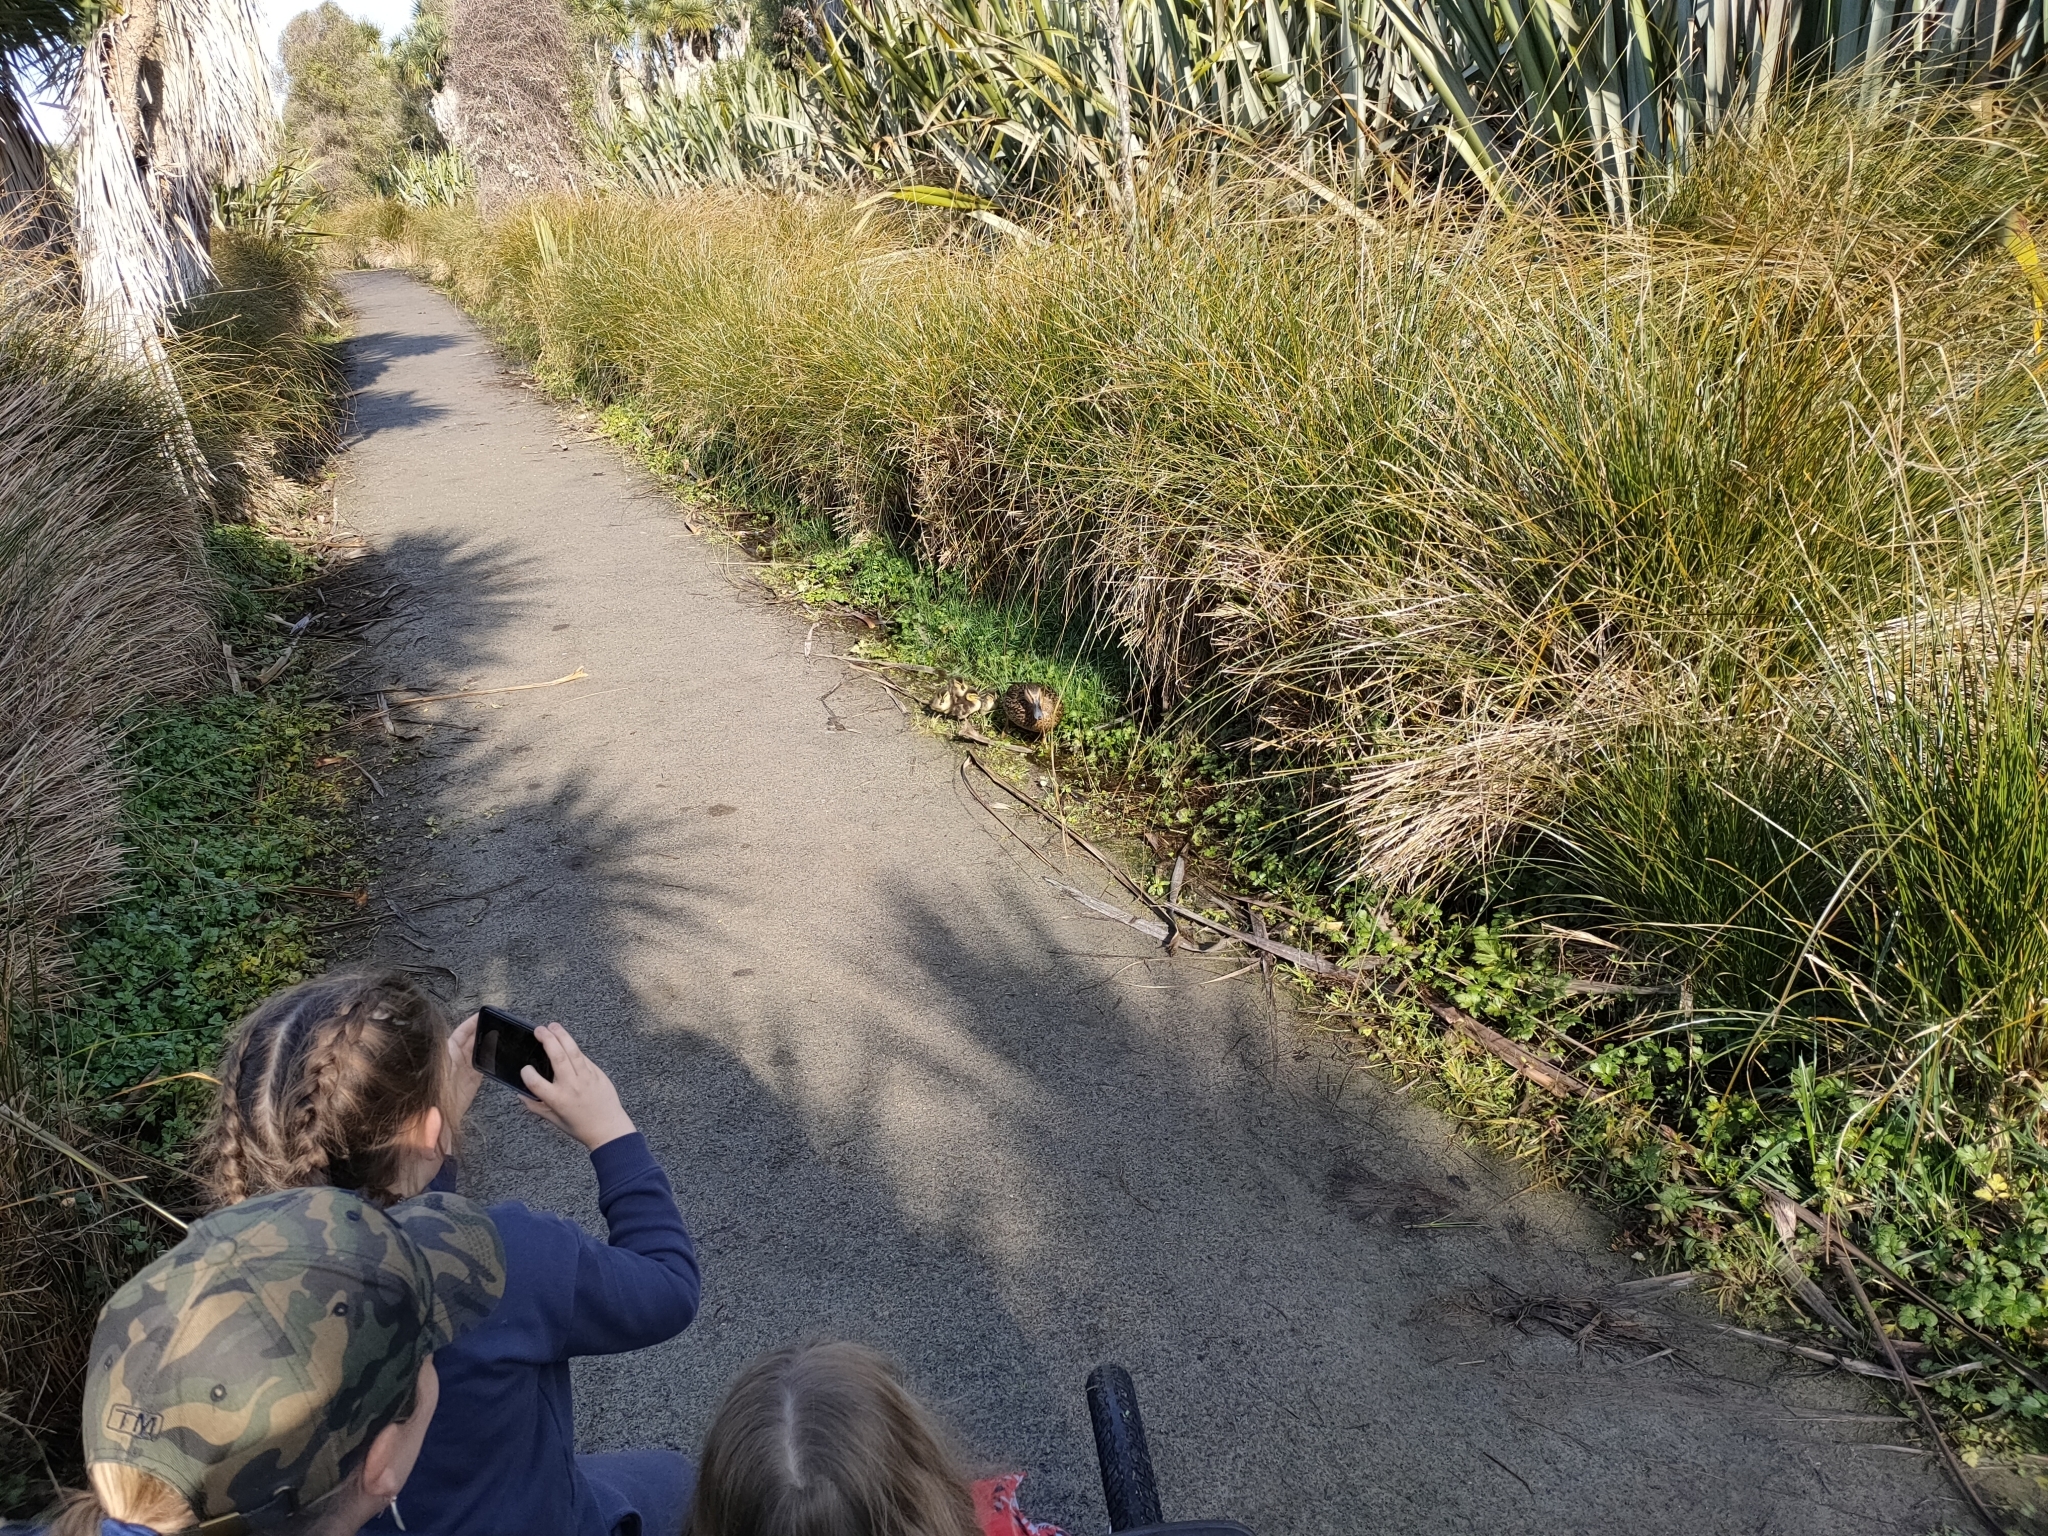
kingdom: Animalia
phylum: Chordata
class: Aves
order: Anseriformes
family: Anatidae
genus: Anas
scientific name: Anas platyrhynchos
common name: Mallard
